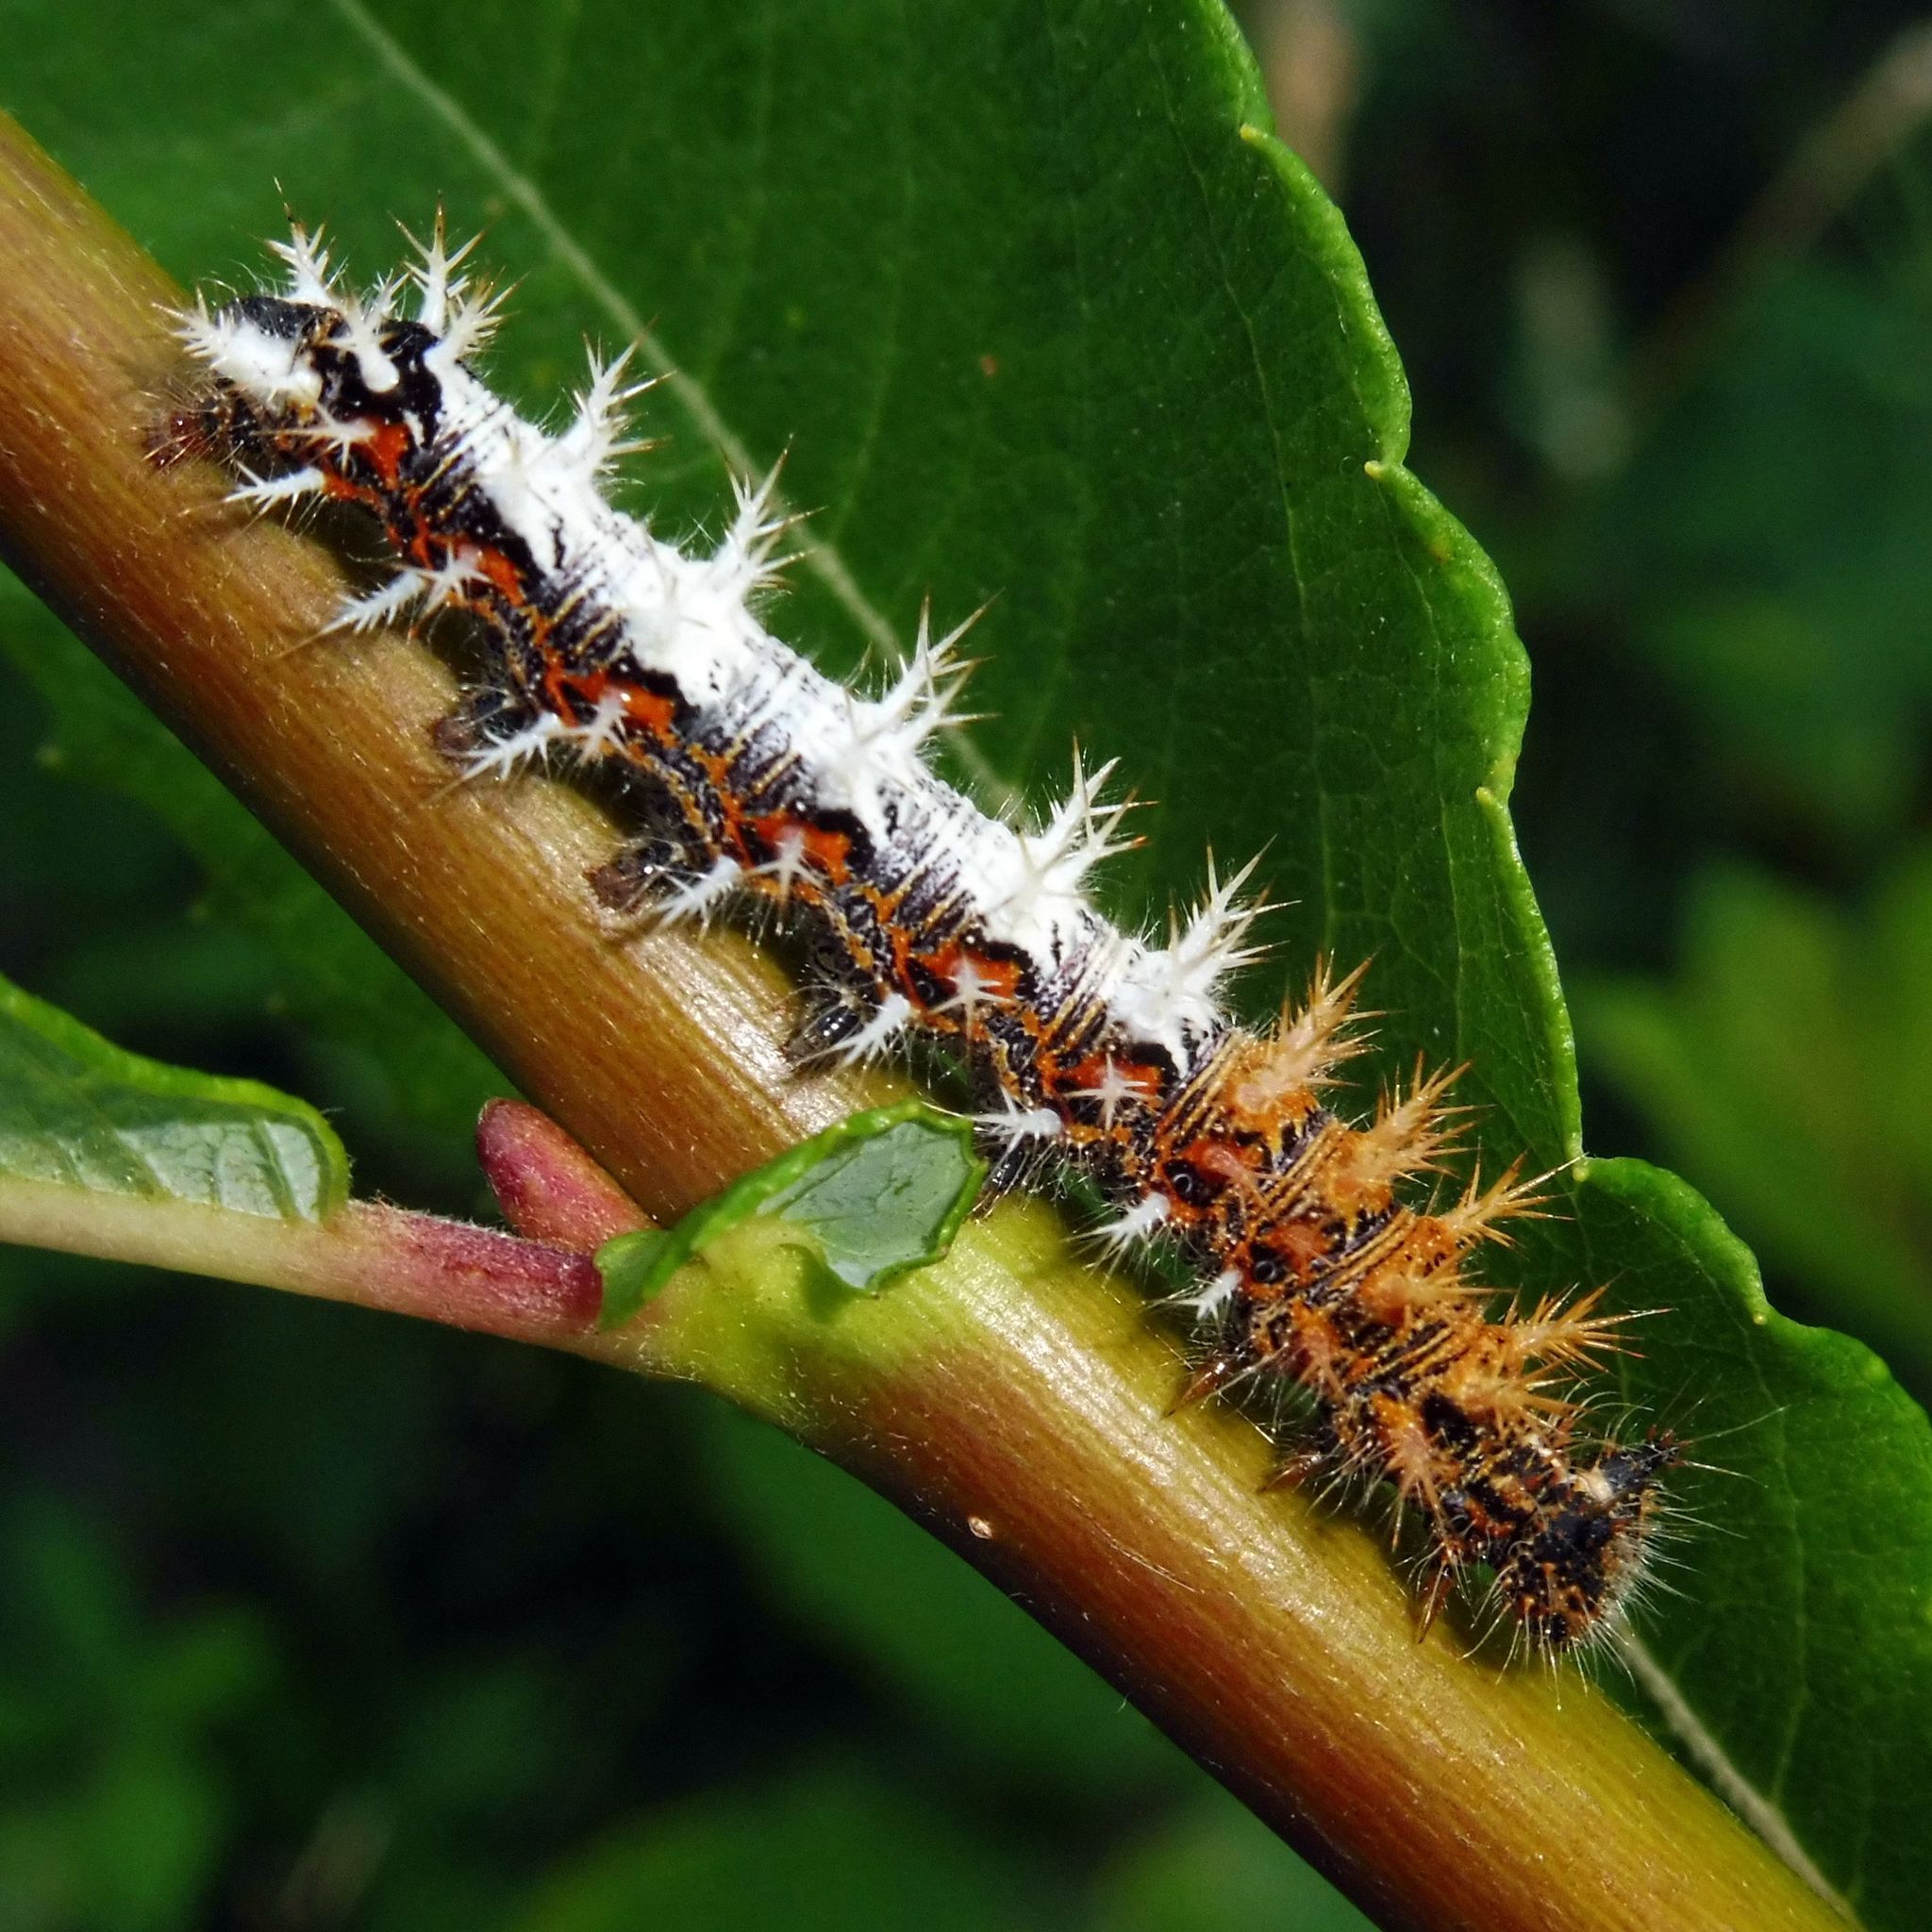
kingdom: Animalia
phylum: Arthropoda
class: Insecta
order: Lepidoptera
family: Nymphalidae
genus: Polygonia
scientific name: Polygonia c-album
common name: Comma
